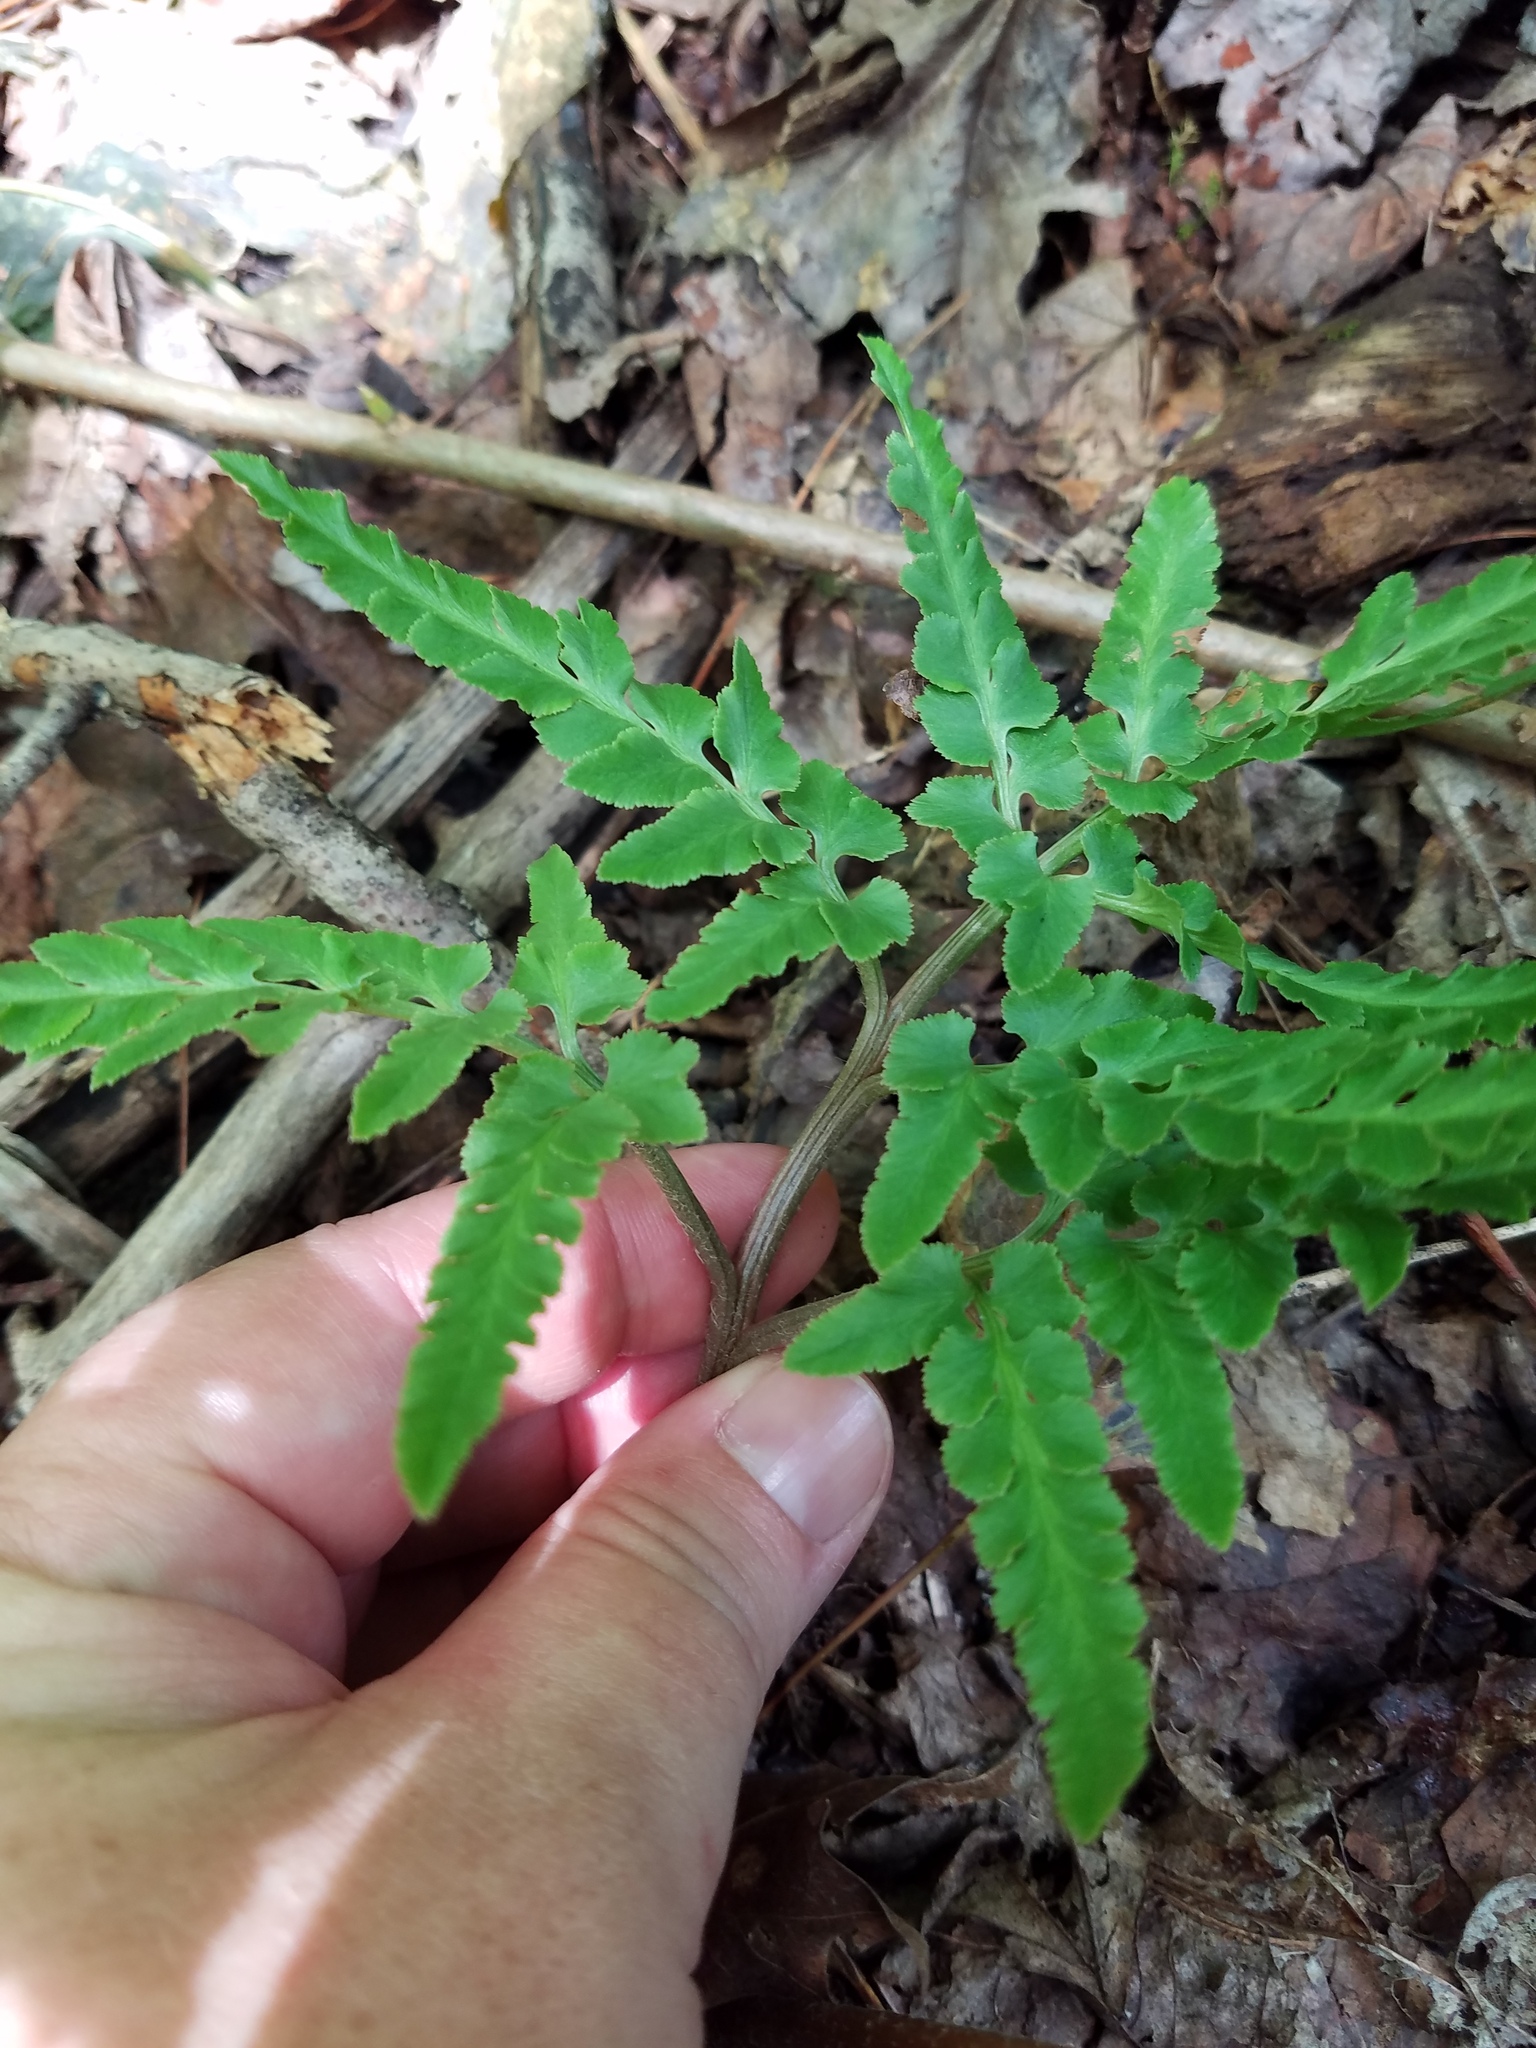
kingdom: Plantae
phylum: Tracheophyta
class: Polypodiopsida
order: Ophioglossales
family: Ophioglossaceae
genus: Sceptridium
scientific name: Sceptridium dissectum
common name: Cut-leaved grapefern
